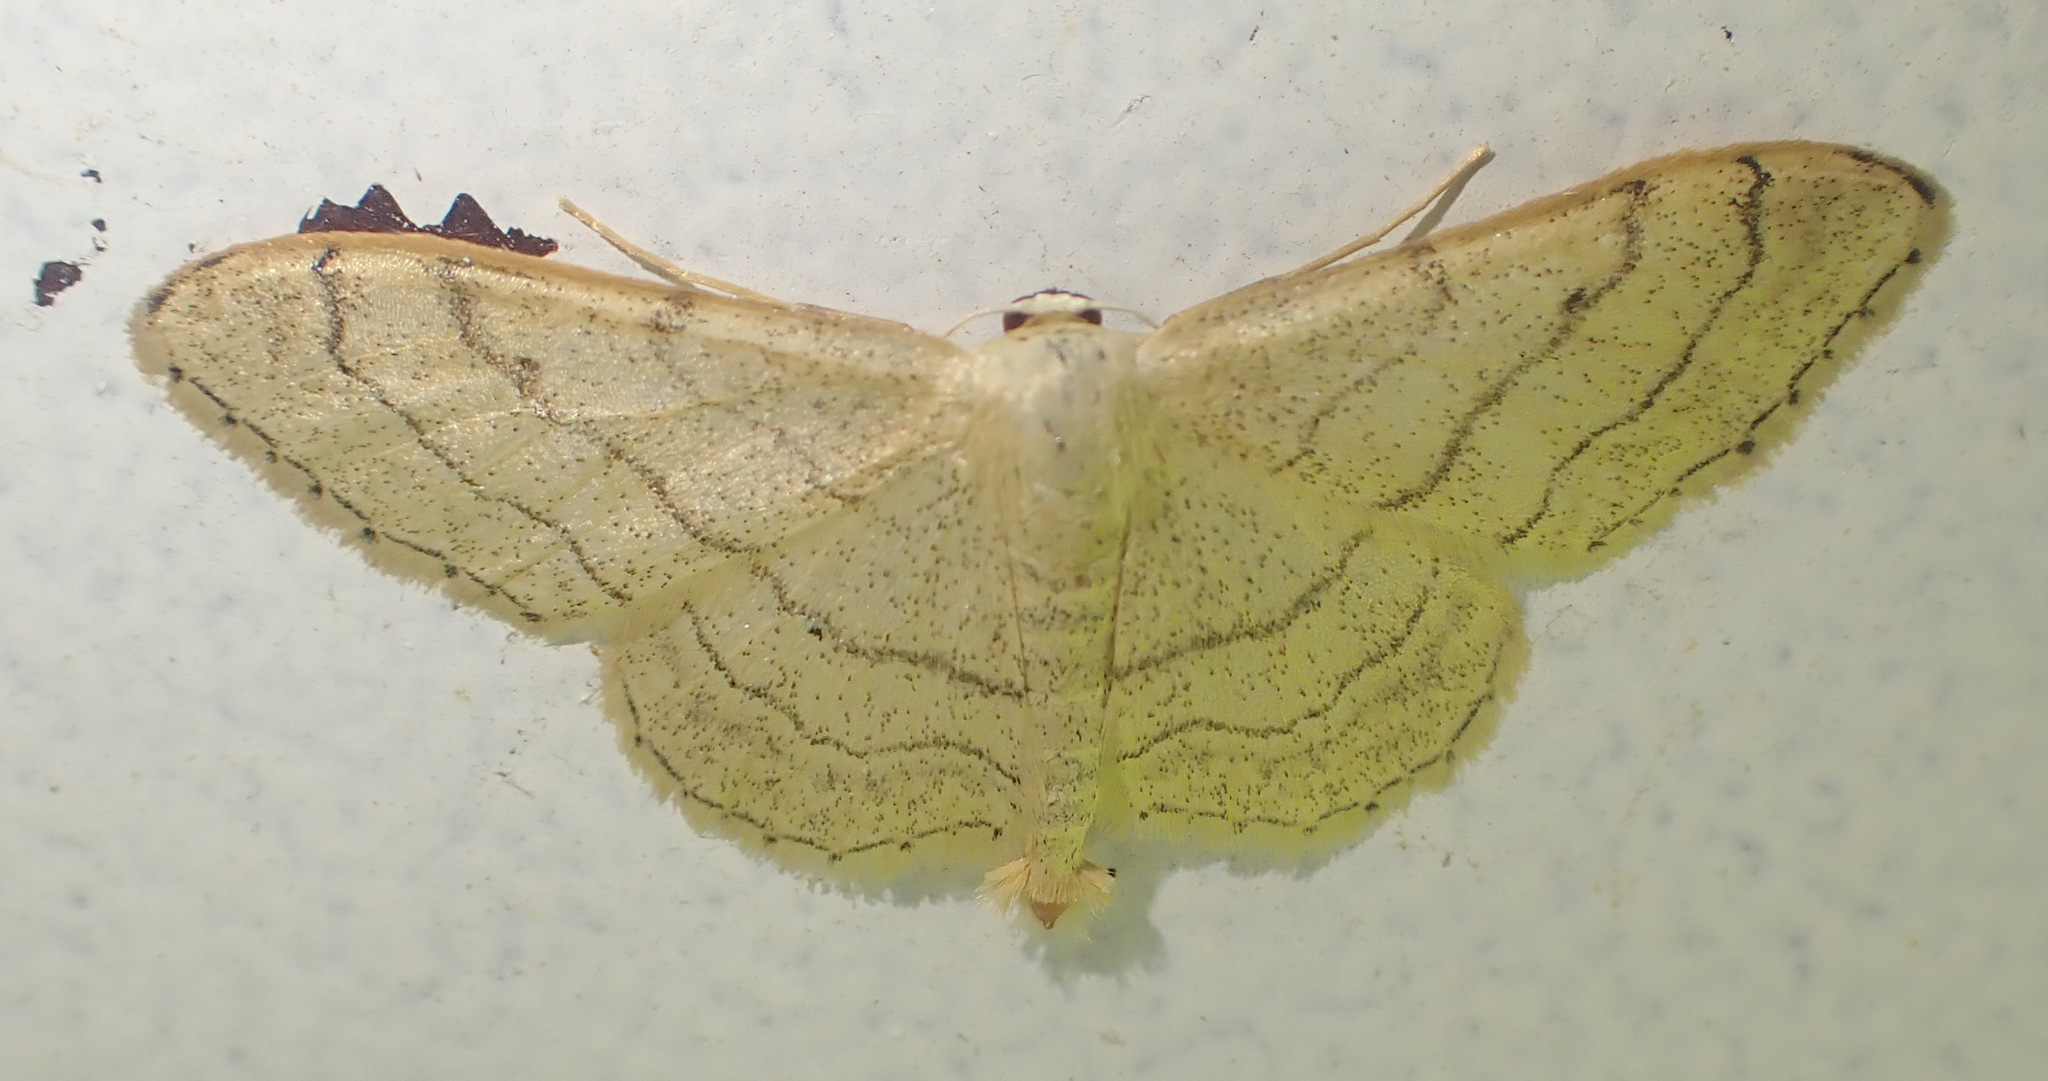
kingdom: Animalia
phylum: Arthropoda
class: Insecta
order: Lepidoptera
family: Geometridae
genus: Idaea
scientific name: Idaea aversata
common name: Riband wave
